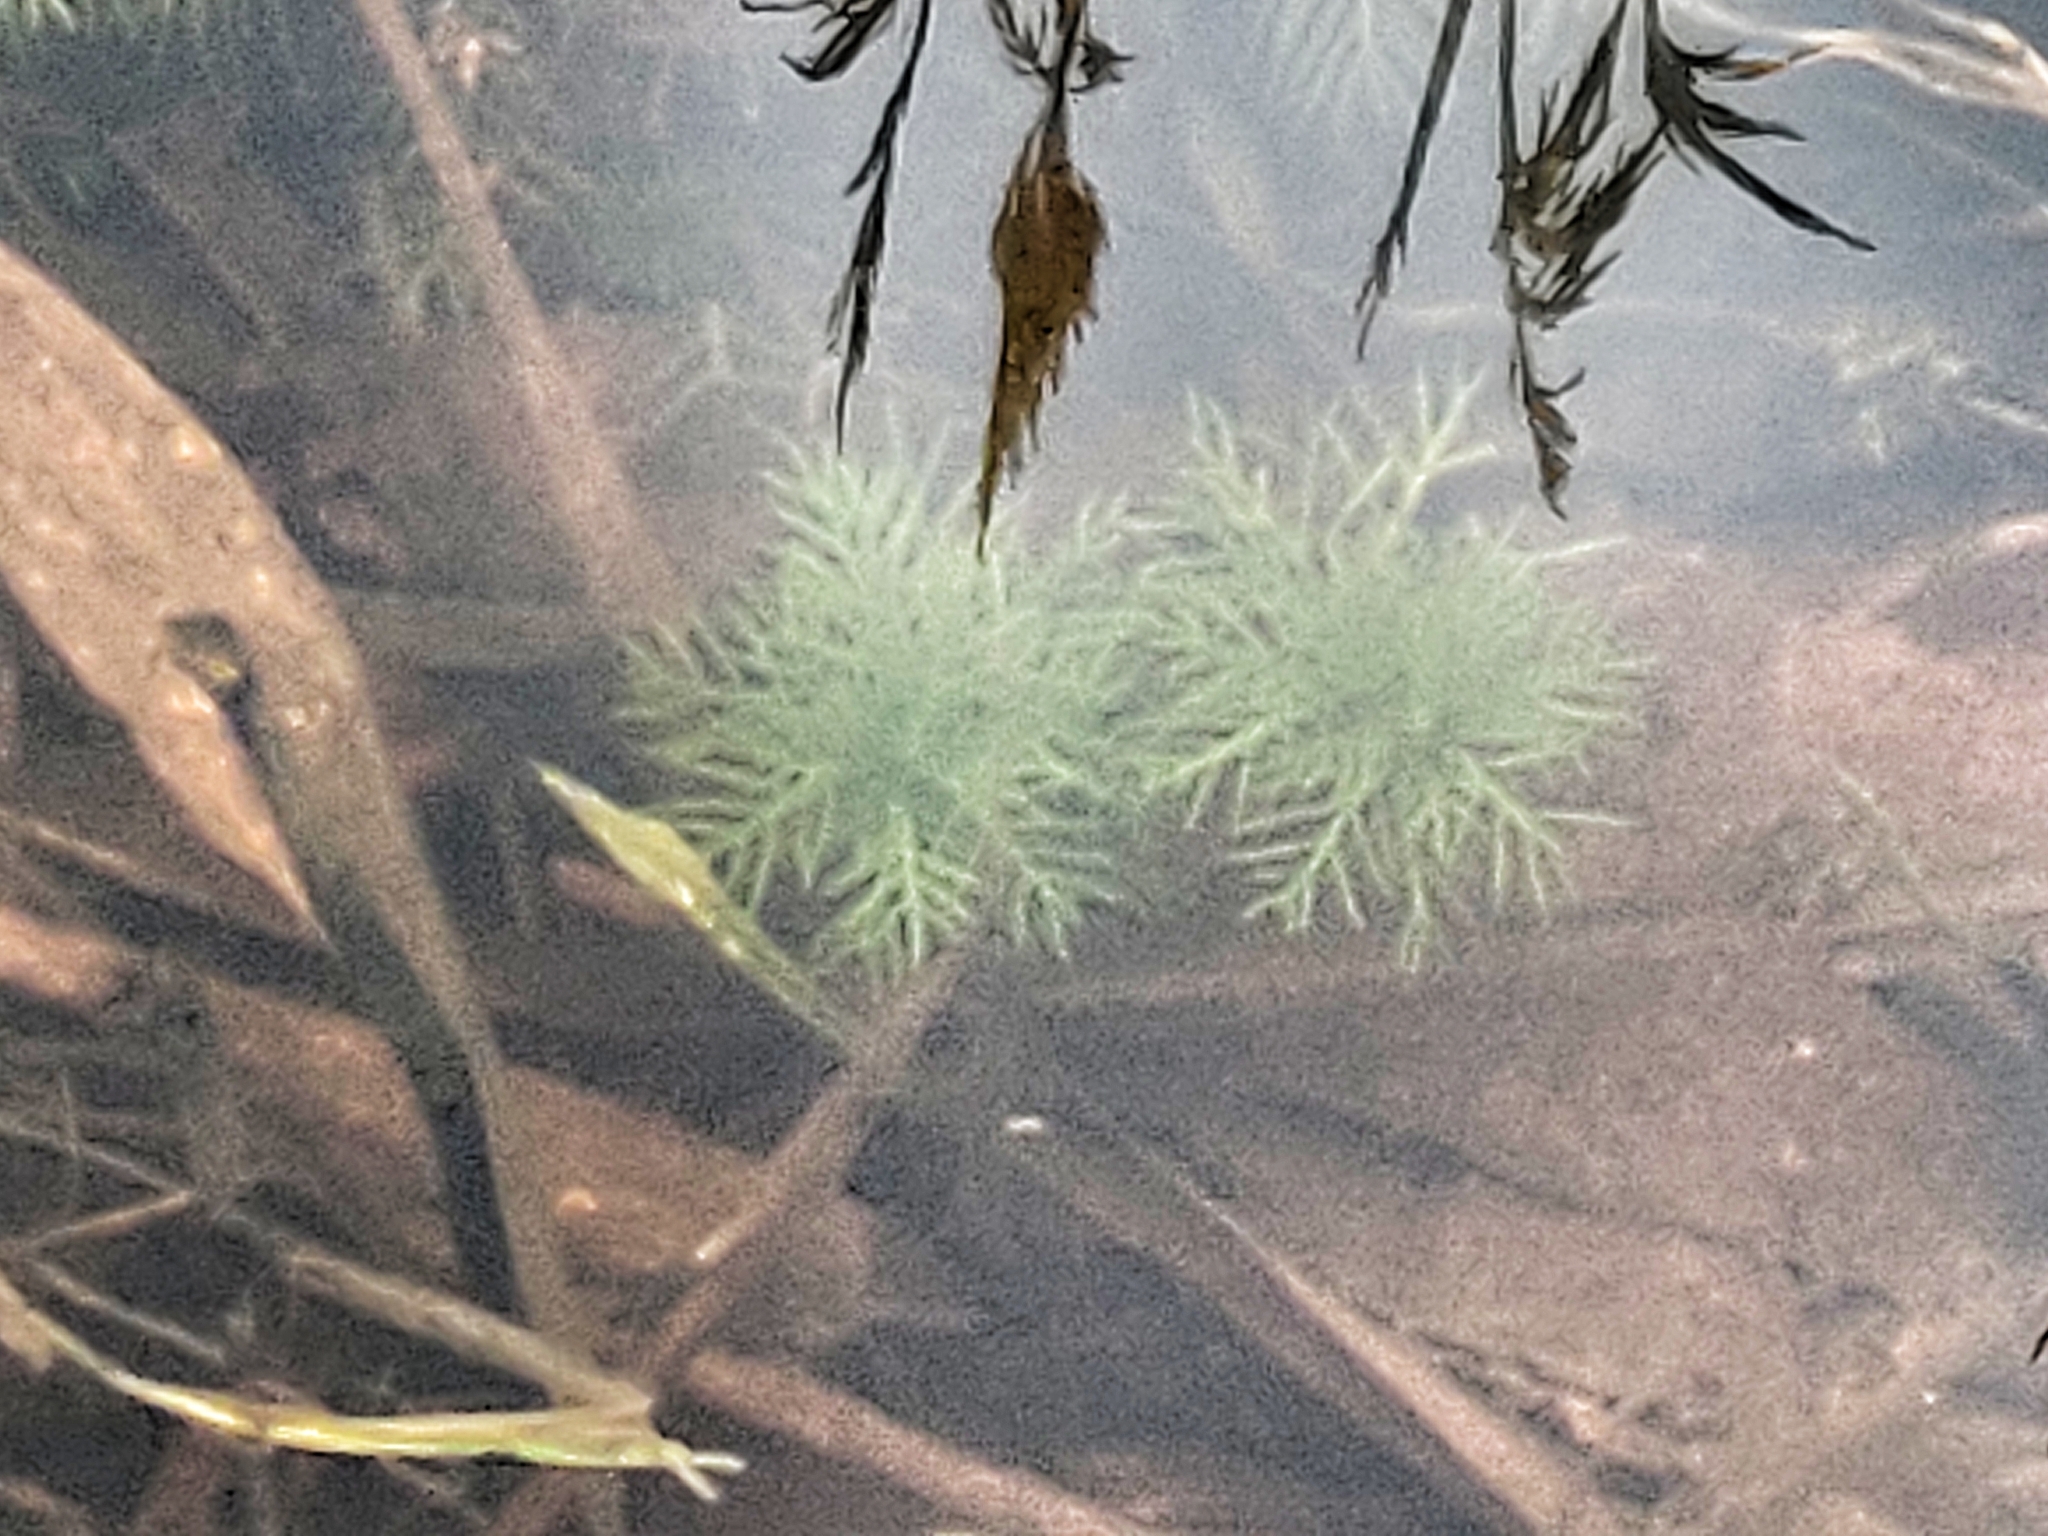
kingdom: Plantae
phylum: Tracheophyta
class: Magnoliopsida
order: Ericales
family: Primulaceae
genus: Hottonia
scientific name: Hottonia palustris
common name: Water-violet
